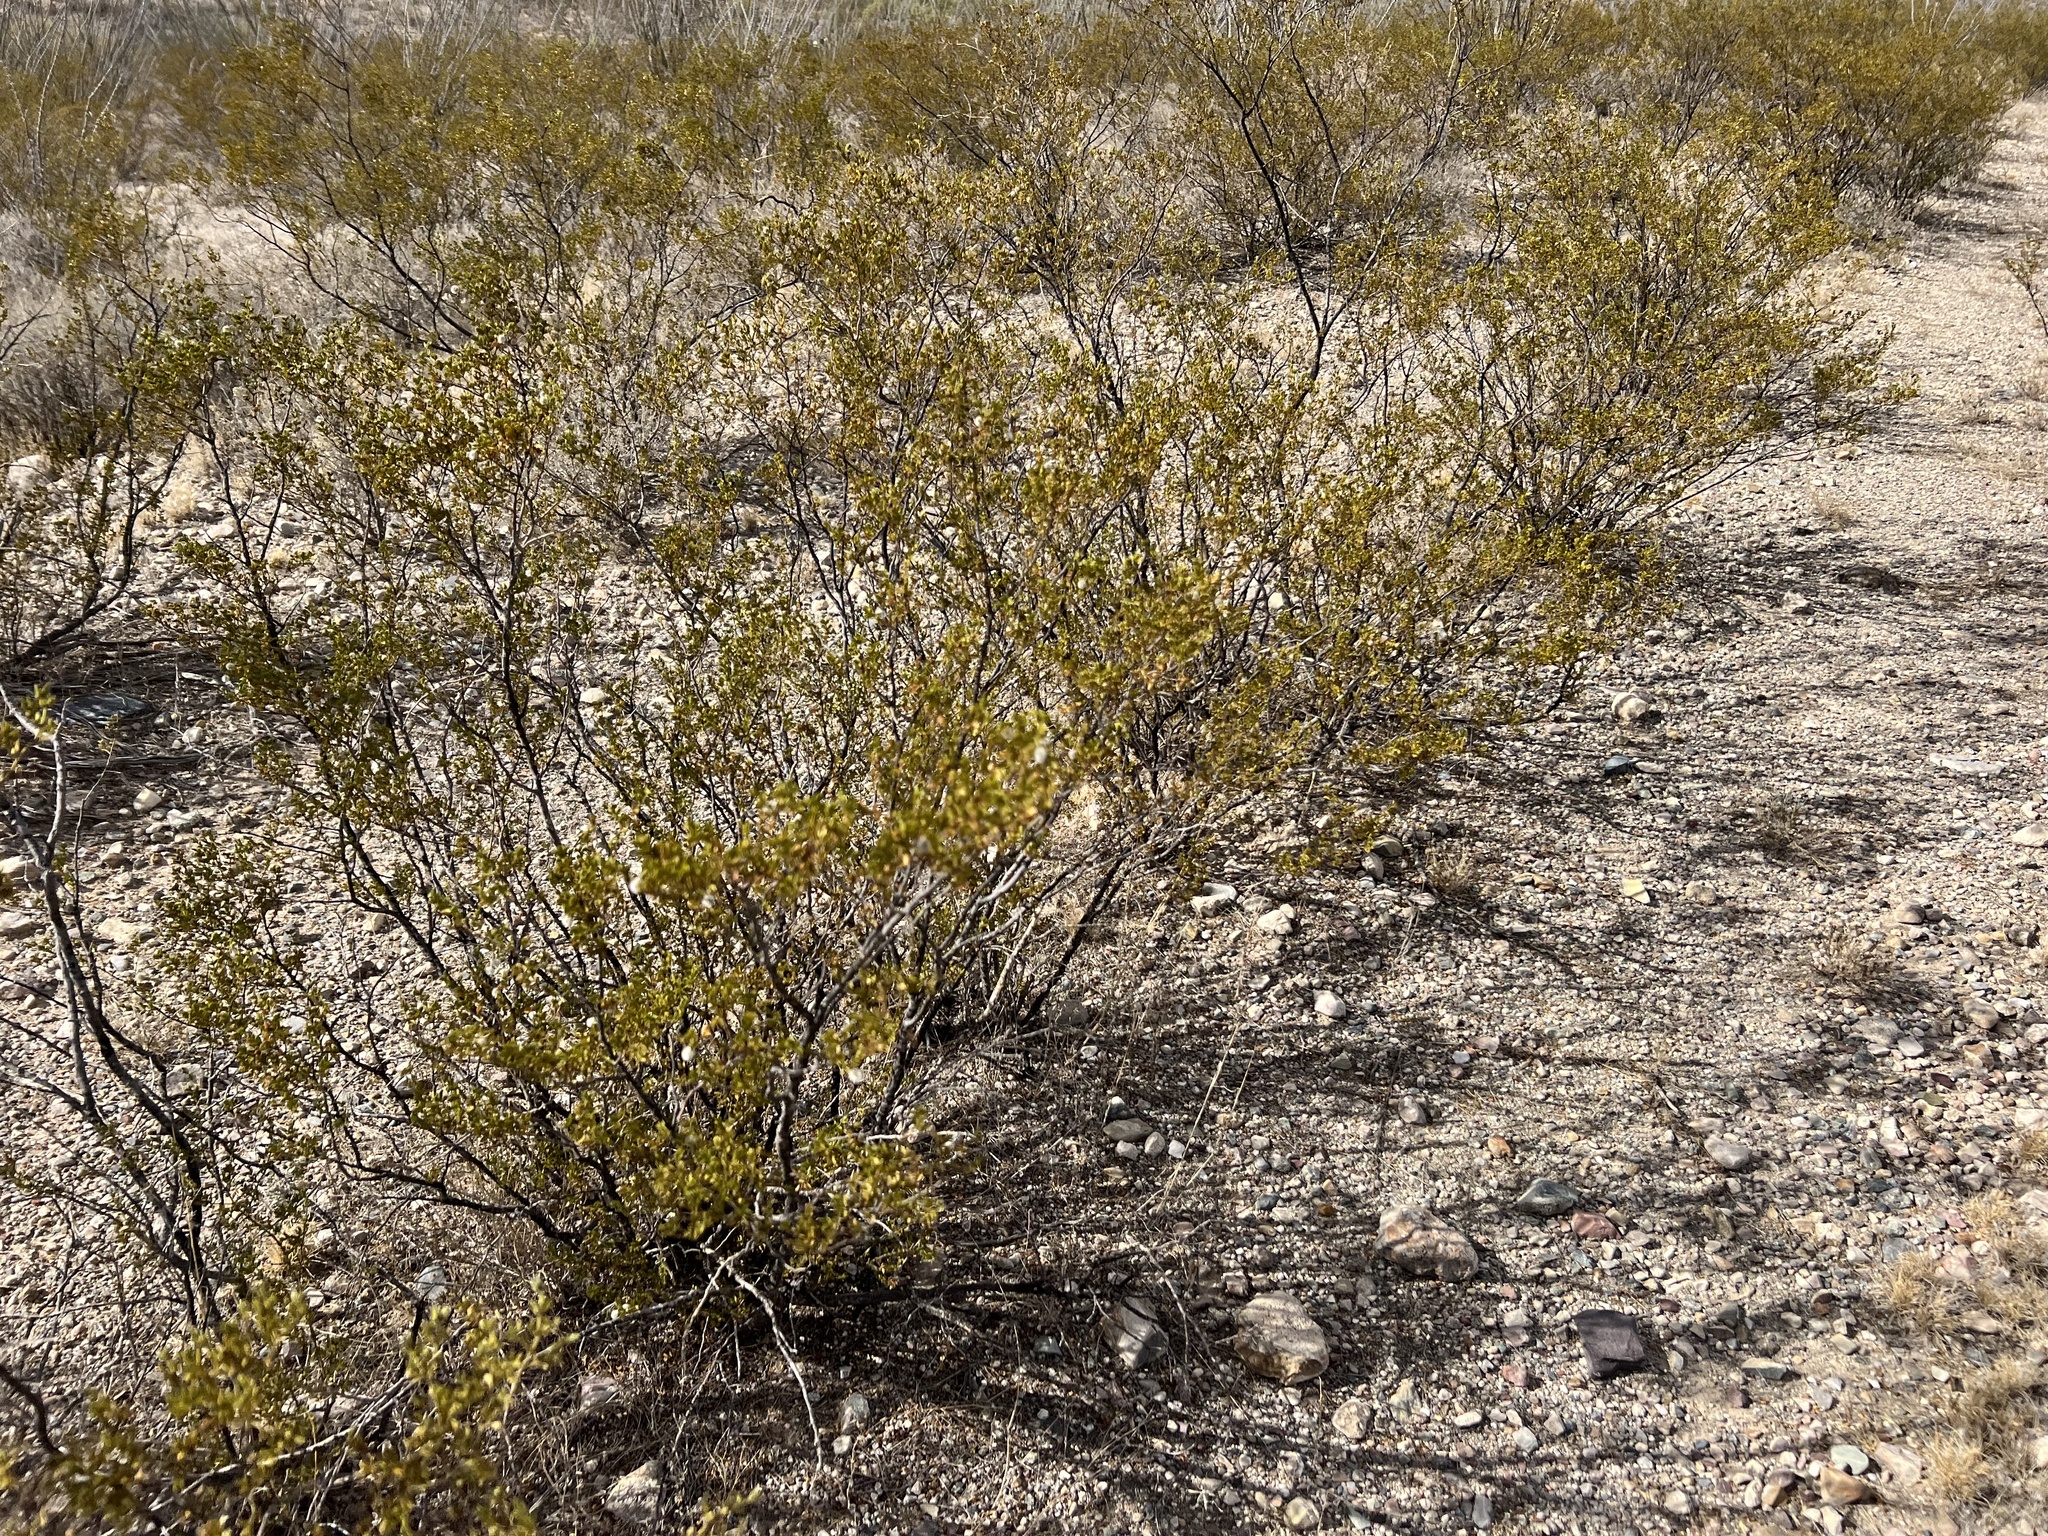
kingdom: Plantae
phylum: Tracheophyta
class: Magnoliopsida
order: Zygophyllales
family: Zygophyllaceae
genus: Larrea
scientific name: Larrea tridentata
